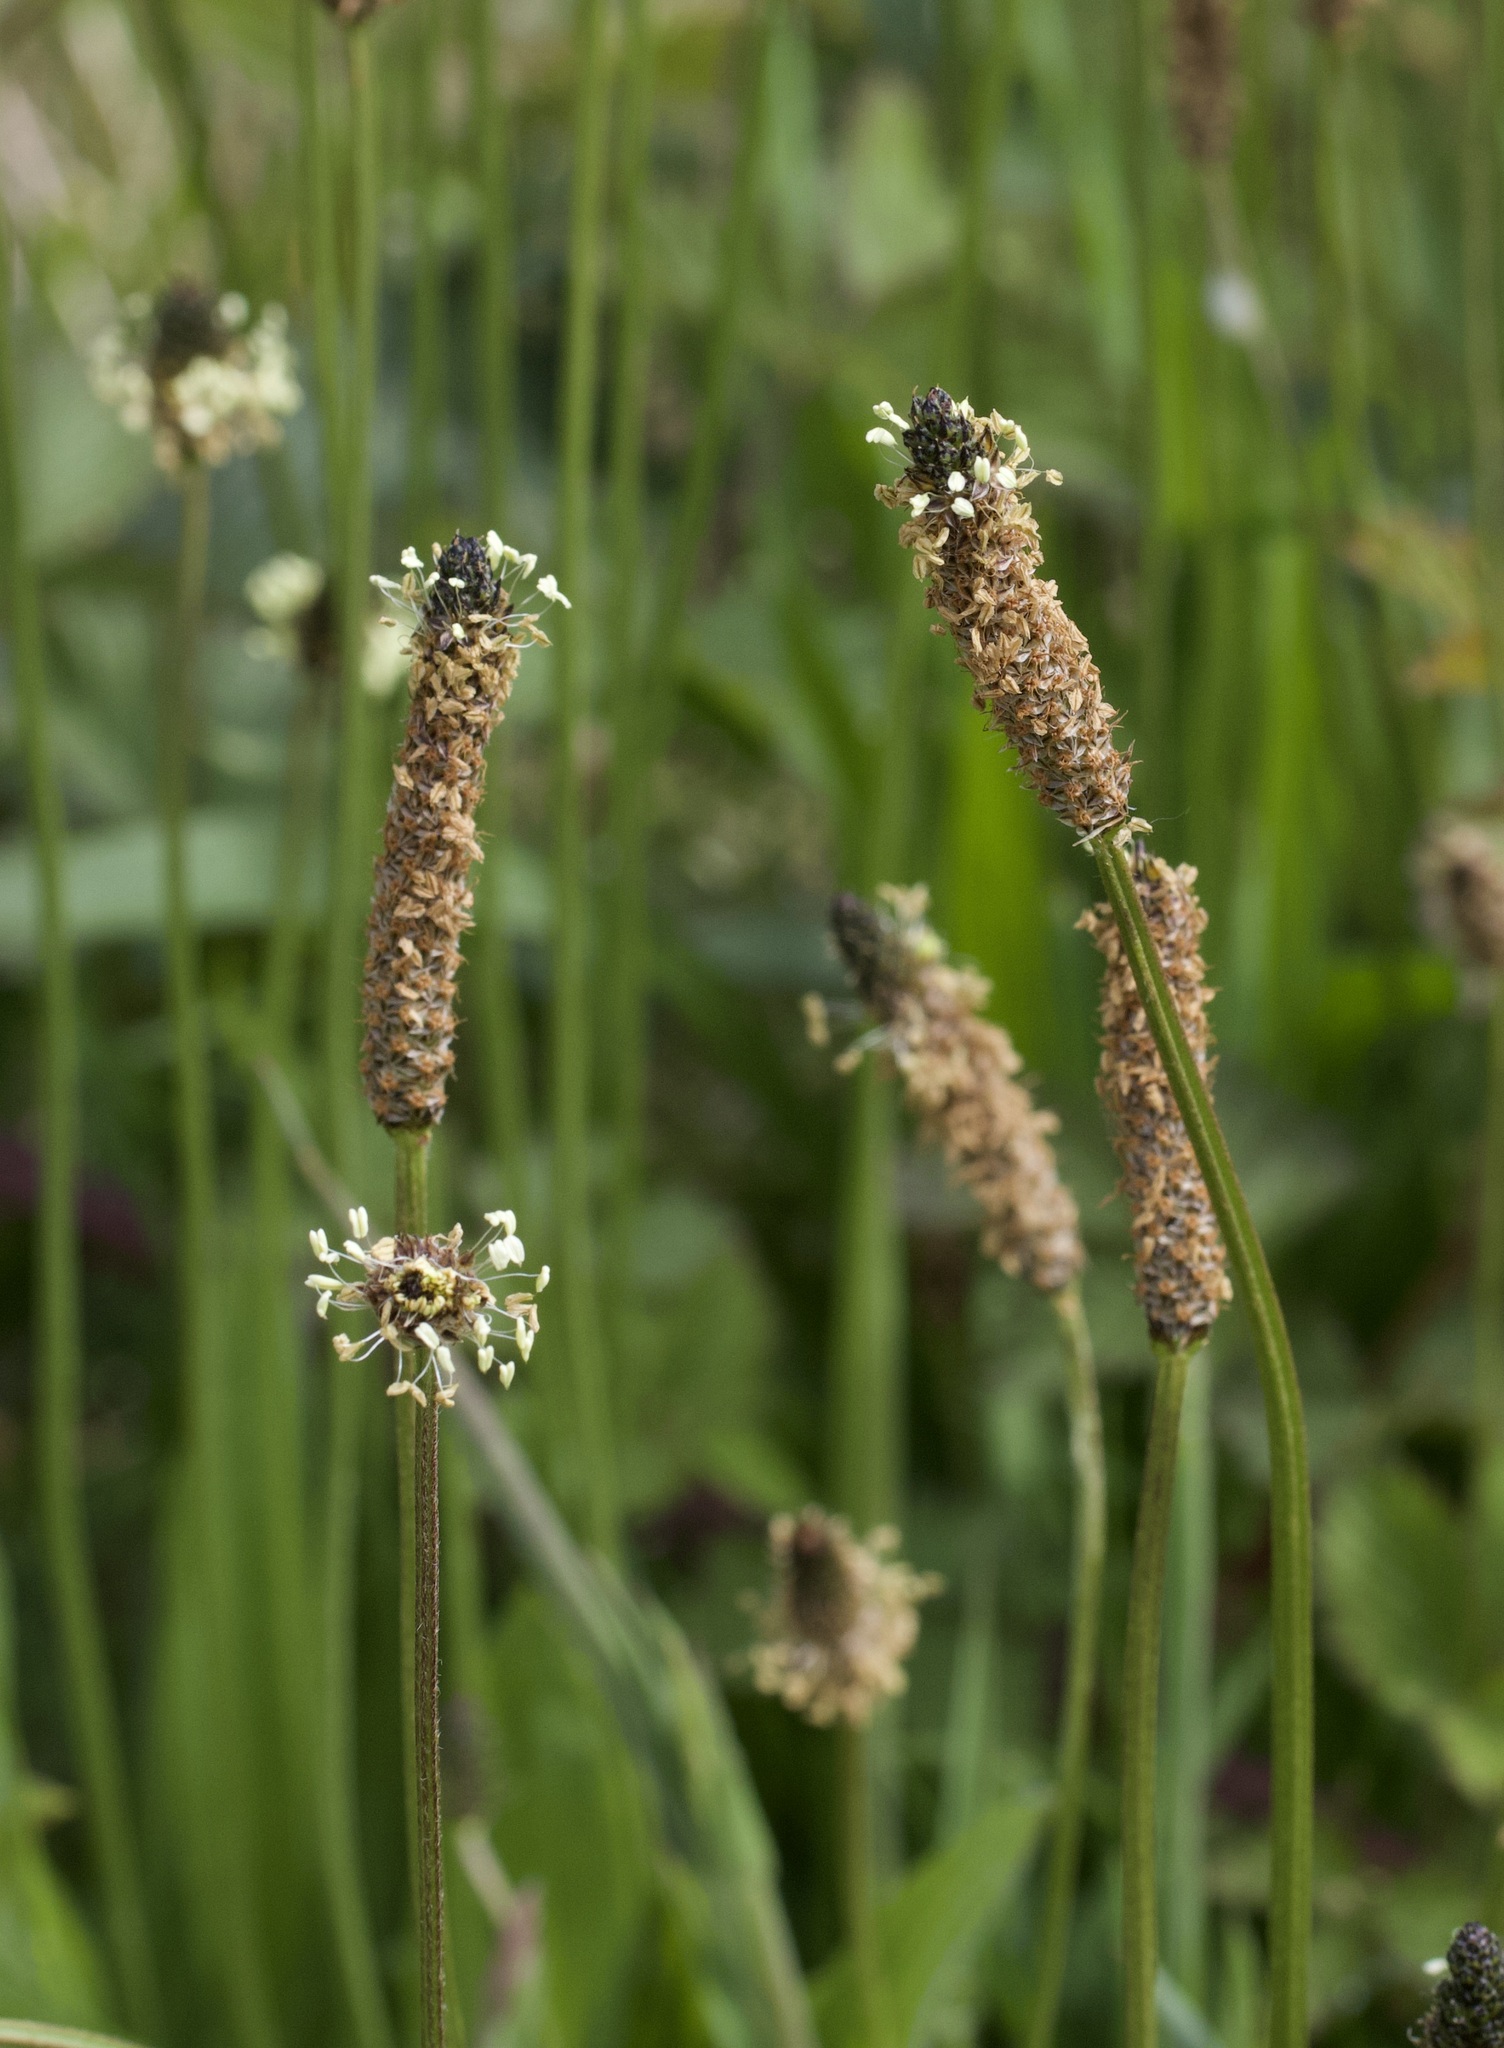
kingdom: Plantae
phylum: Tracheophyta
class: Magnoliopsida
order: Lamiales
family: Plantaginaceae
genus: Plantago
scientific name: Plantago lanceolata
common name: Ribwort plantain
